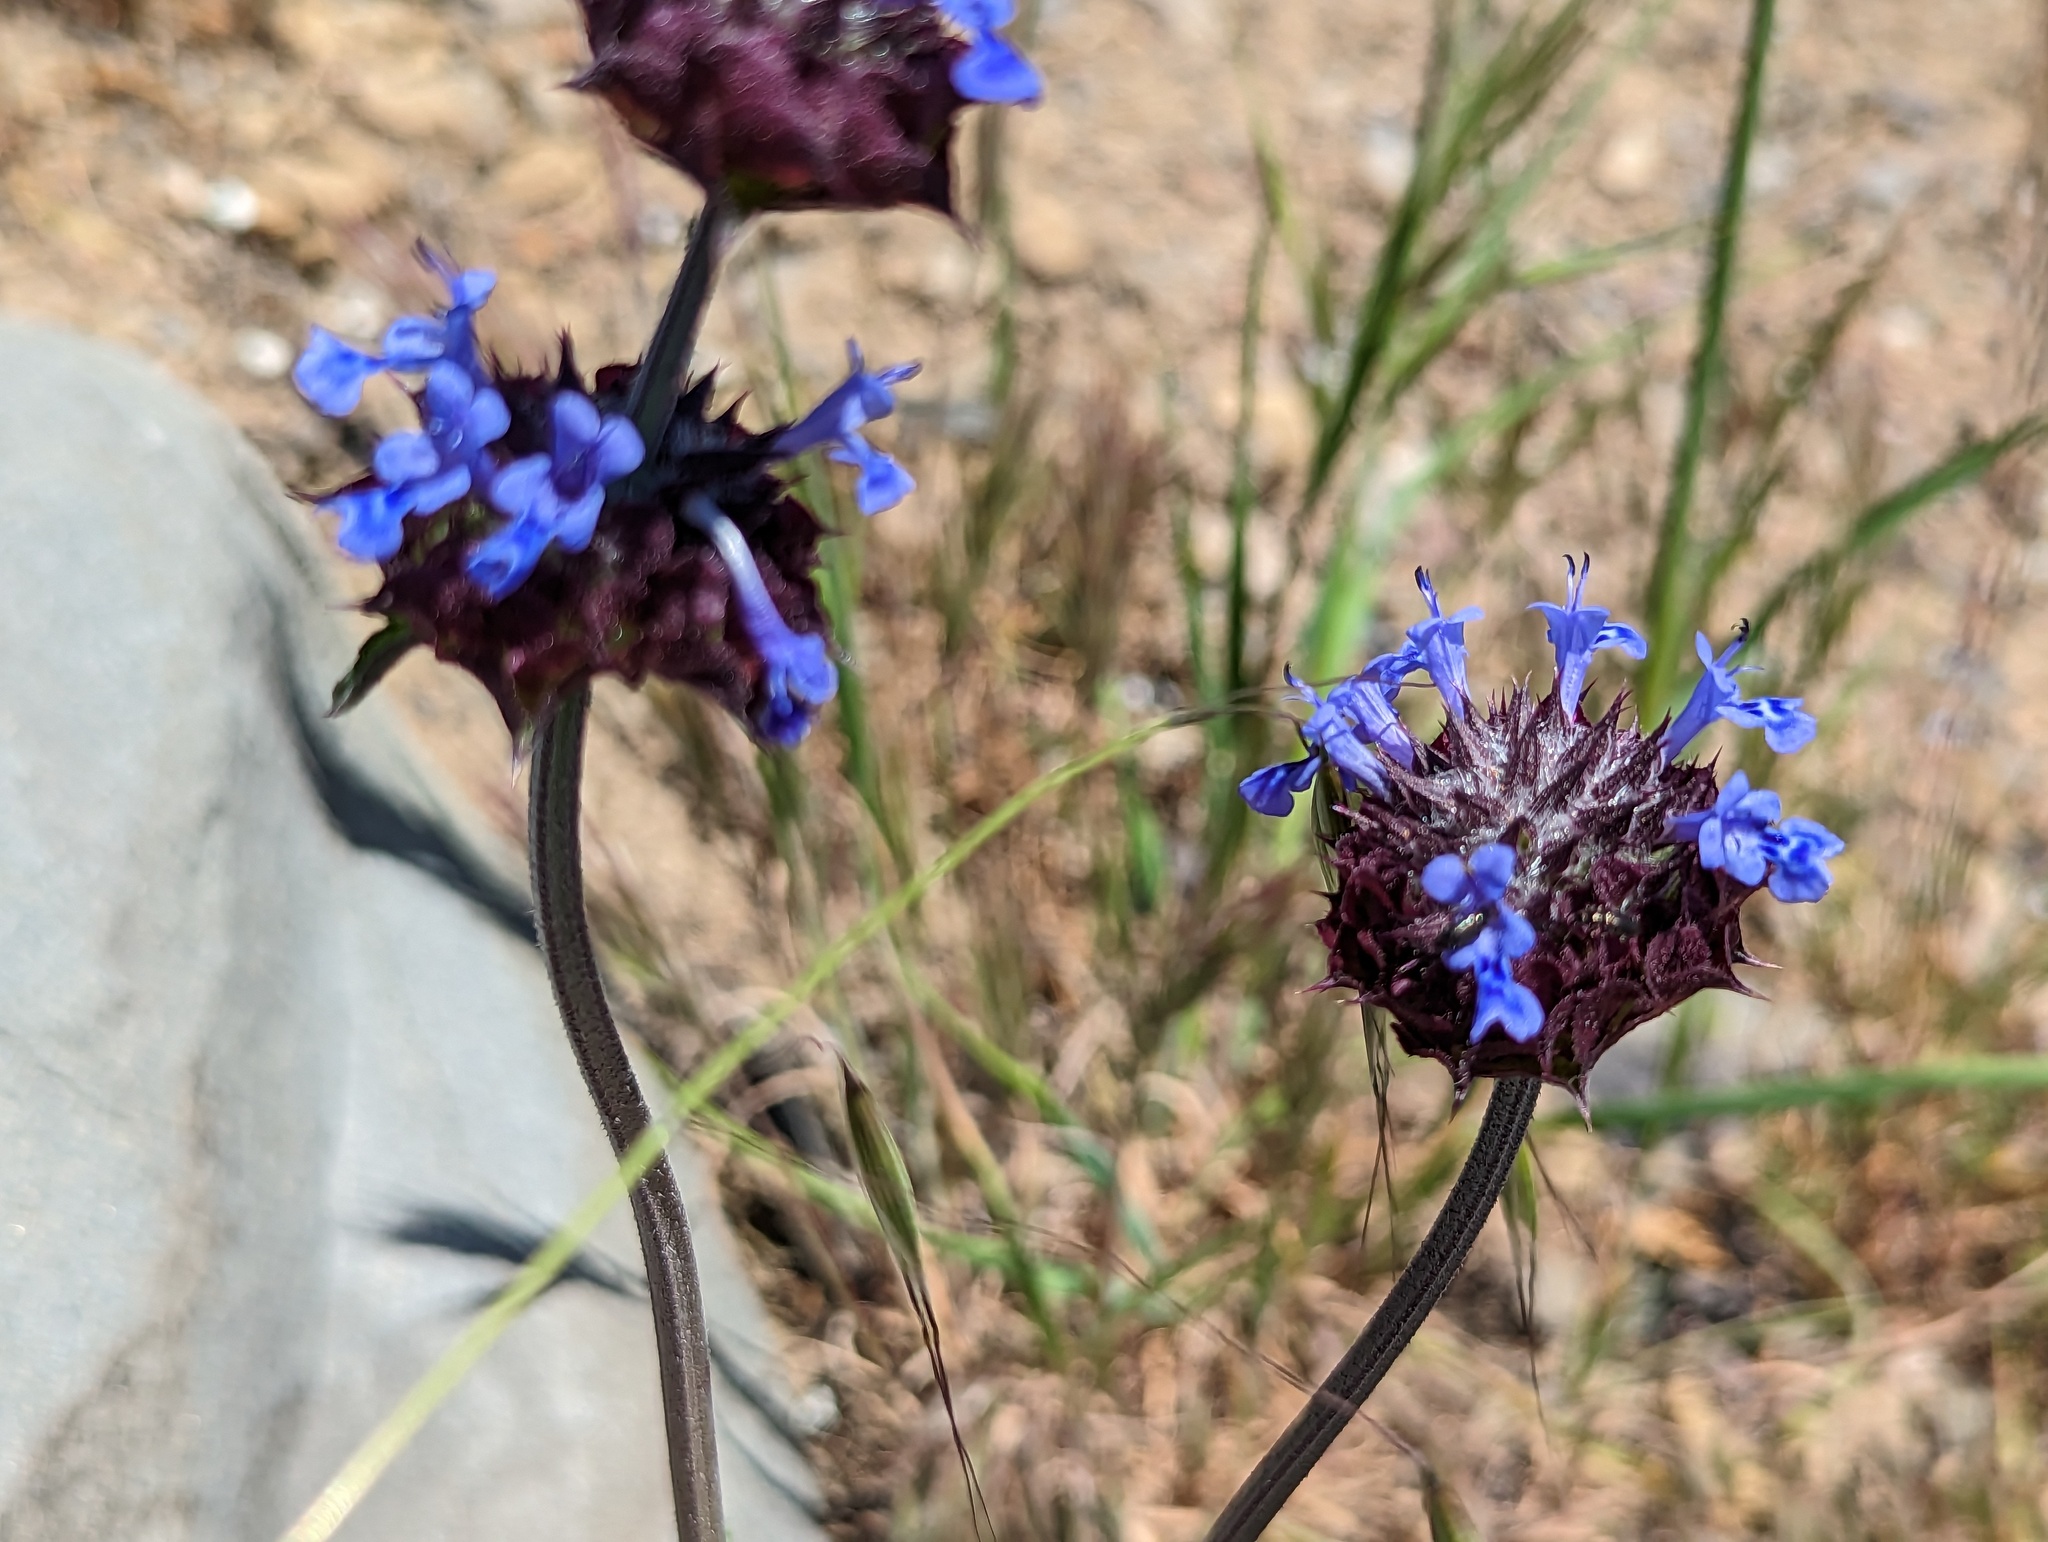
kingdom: Plantae
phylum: Tracheophyta
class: Magnoliopsida
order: Lamiales
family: Lamiaceae
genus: Salvia
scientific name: Salvia columbariae
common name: Chia
